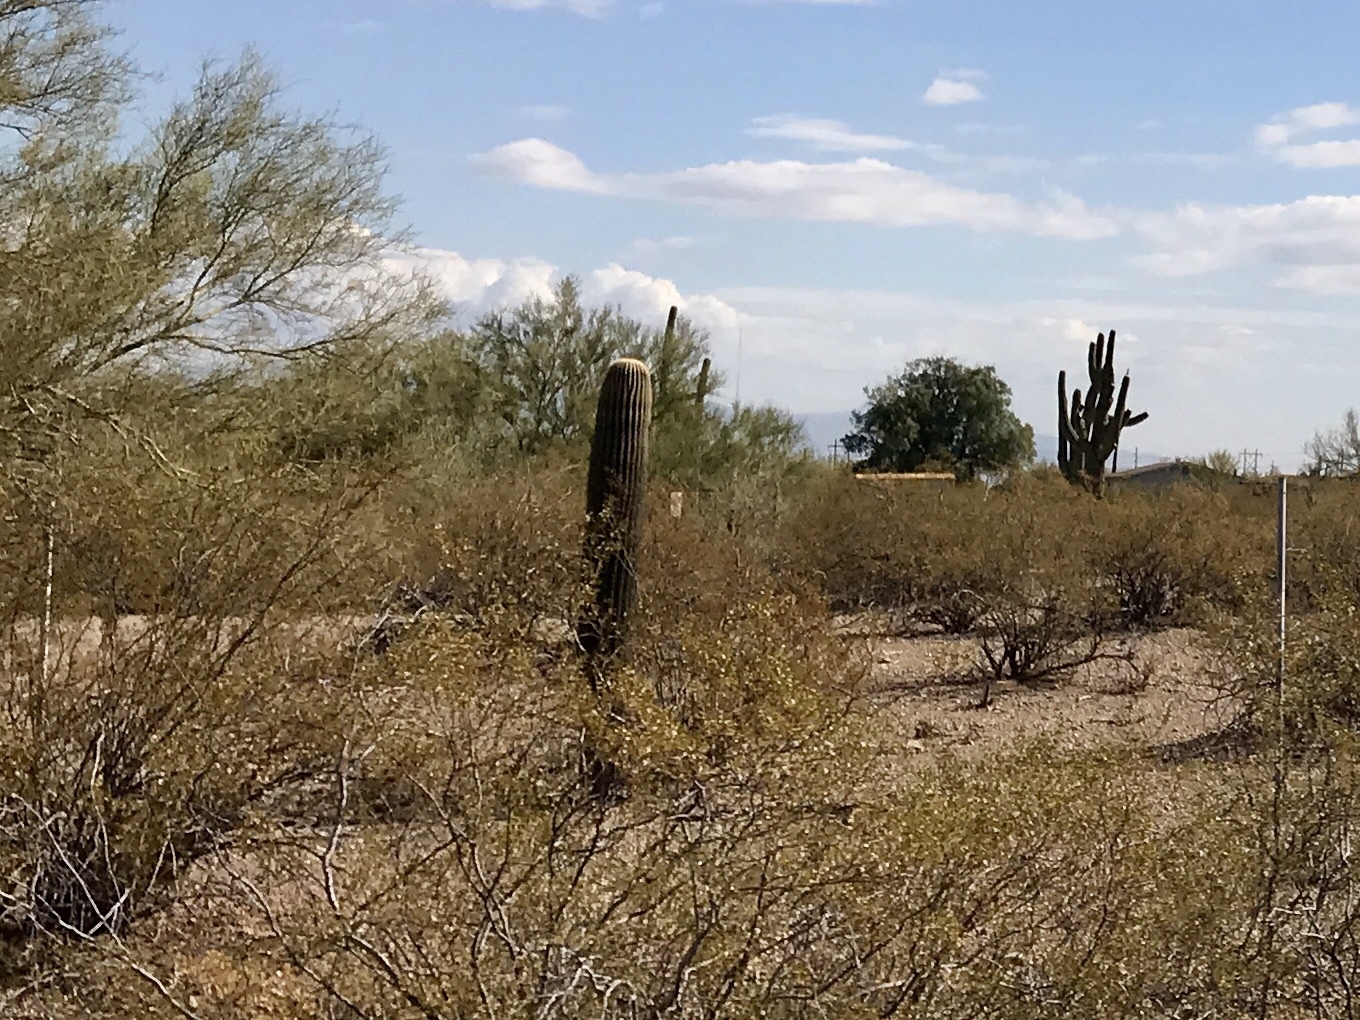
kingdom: Plantae
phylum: Tracheophyta
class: Magnoliopsida
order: Caryophyllales
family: Cactaceae
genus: Carnegiea
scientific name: Carnegiea gigantea
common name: Saguaro
